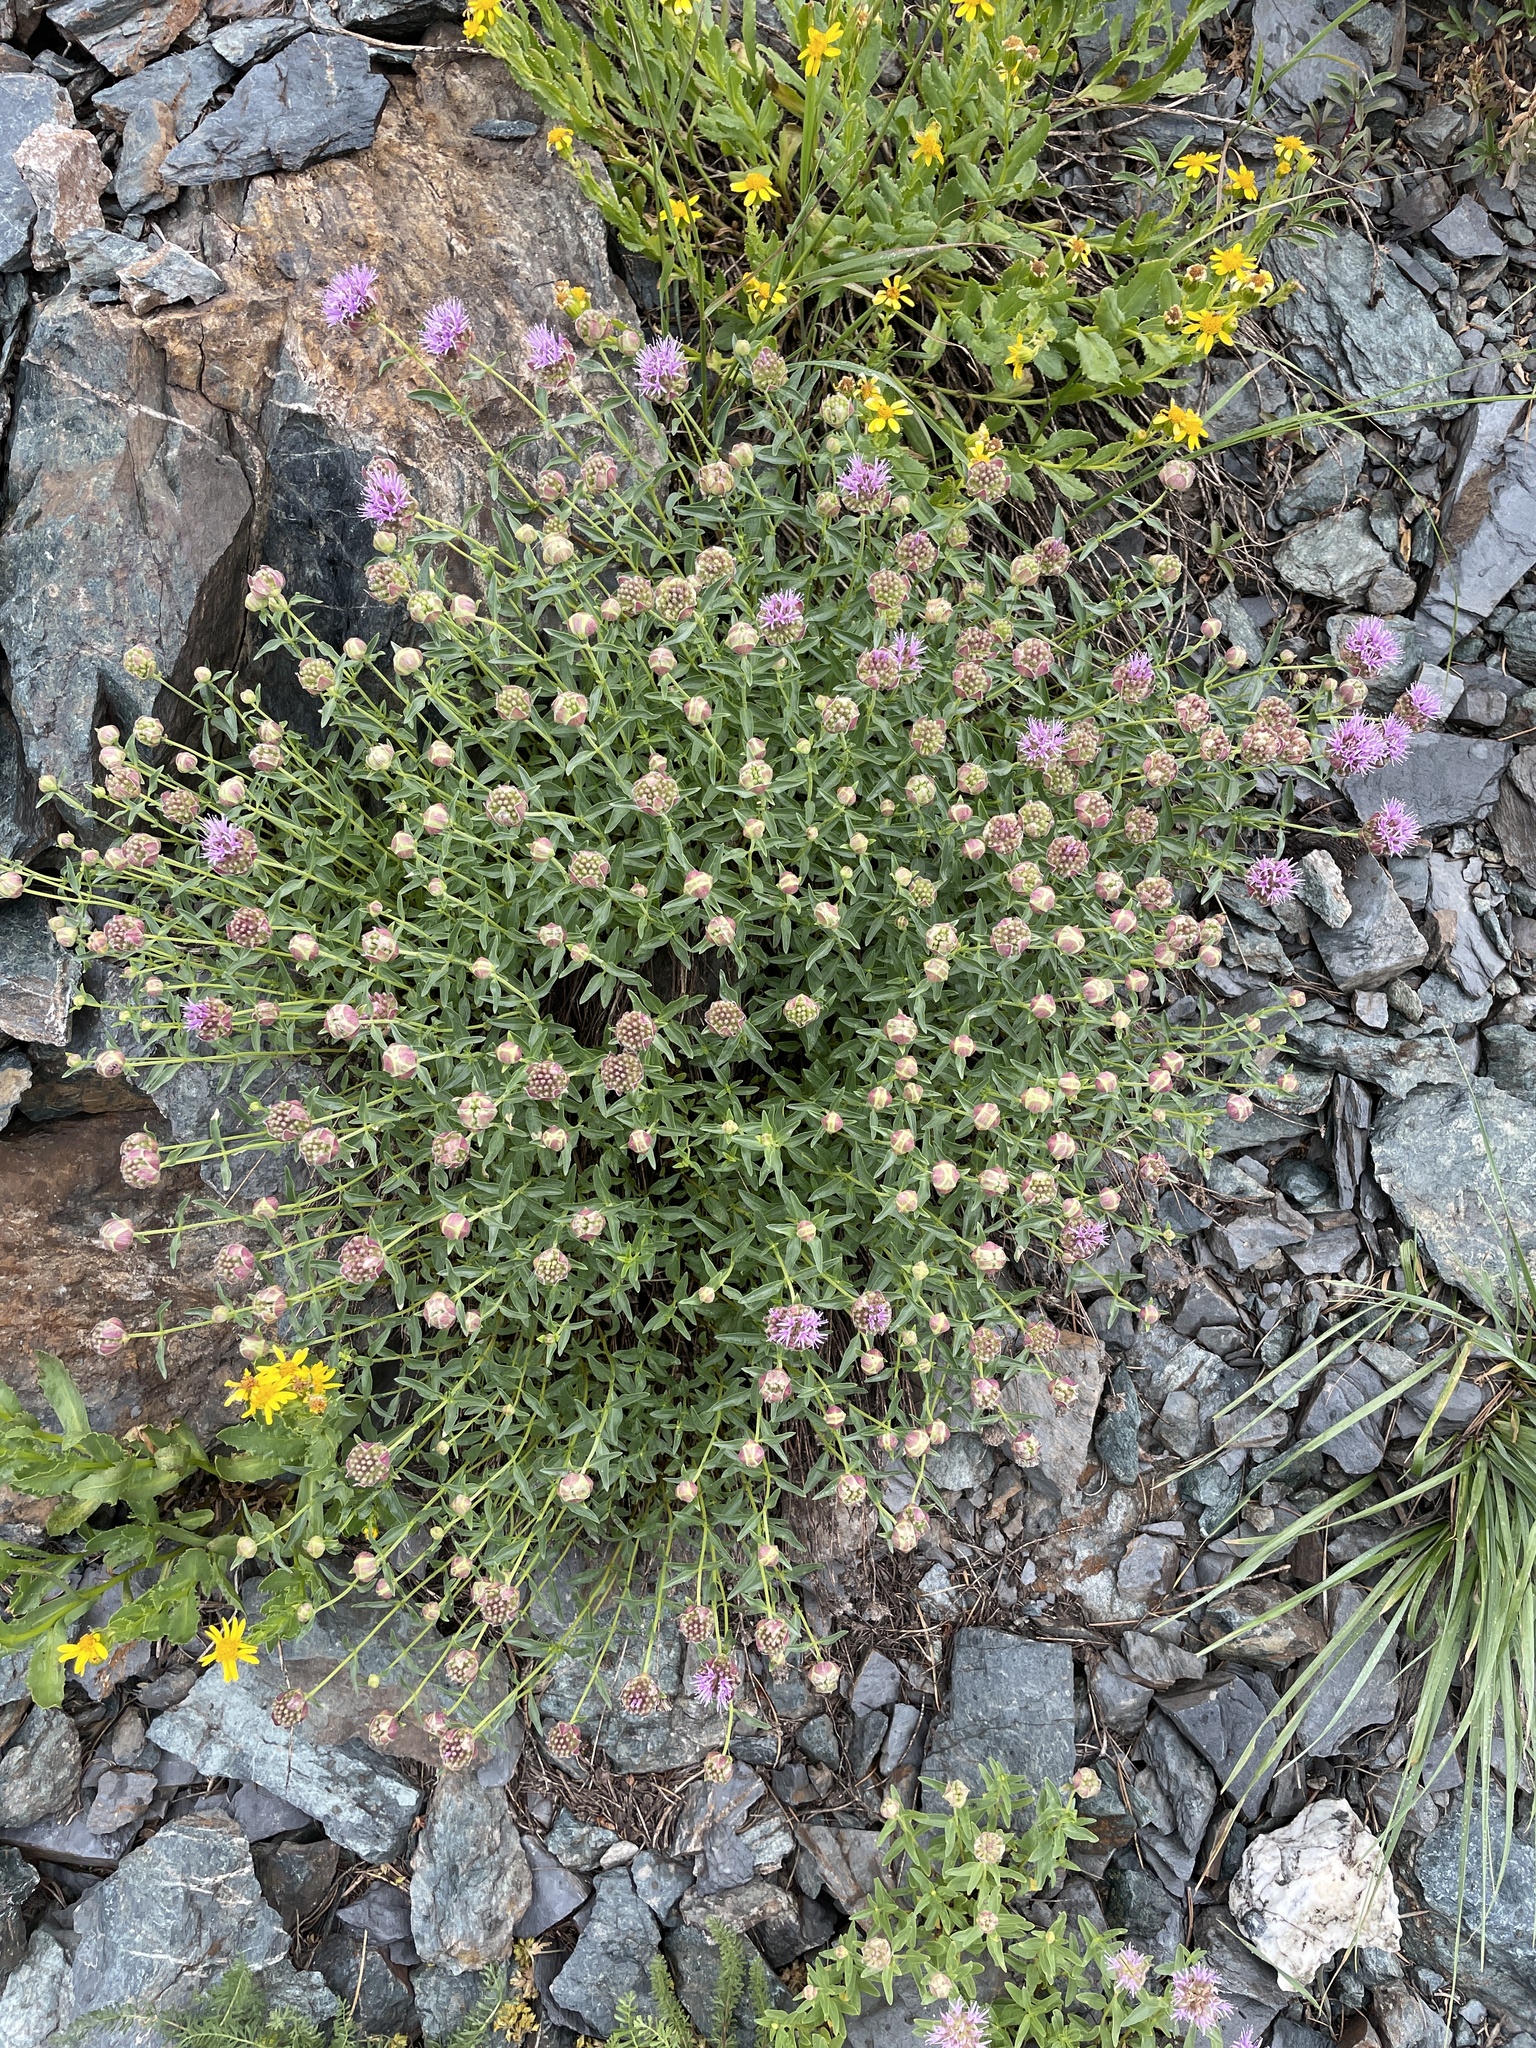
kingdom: Plantae
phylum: Tracheophyta
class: Magnoliopsida
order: Lamiales
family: Lamiaceae
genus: Monardella
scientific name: Monardella odoratissima
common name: Pacific monardella
